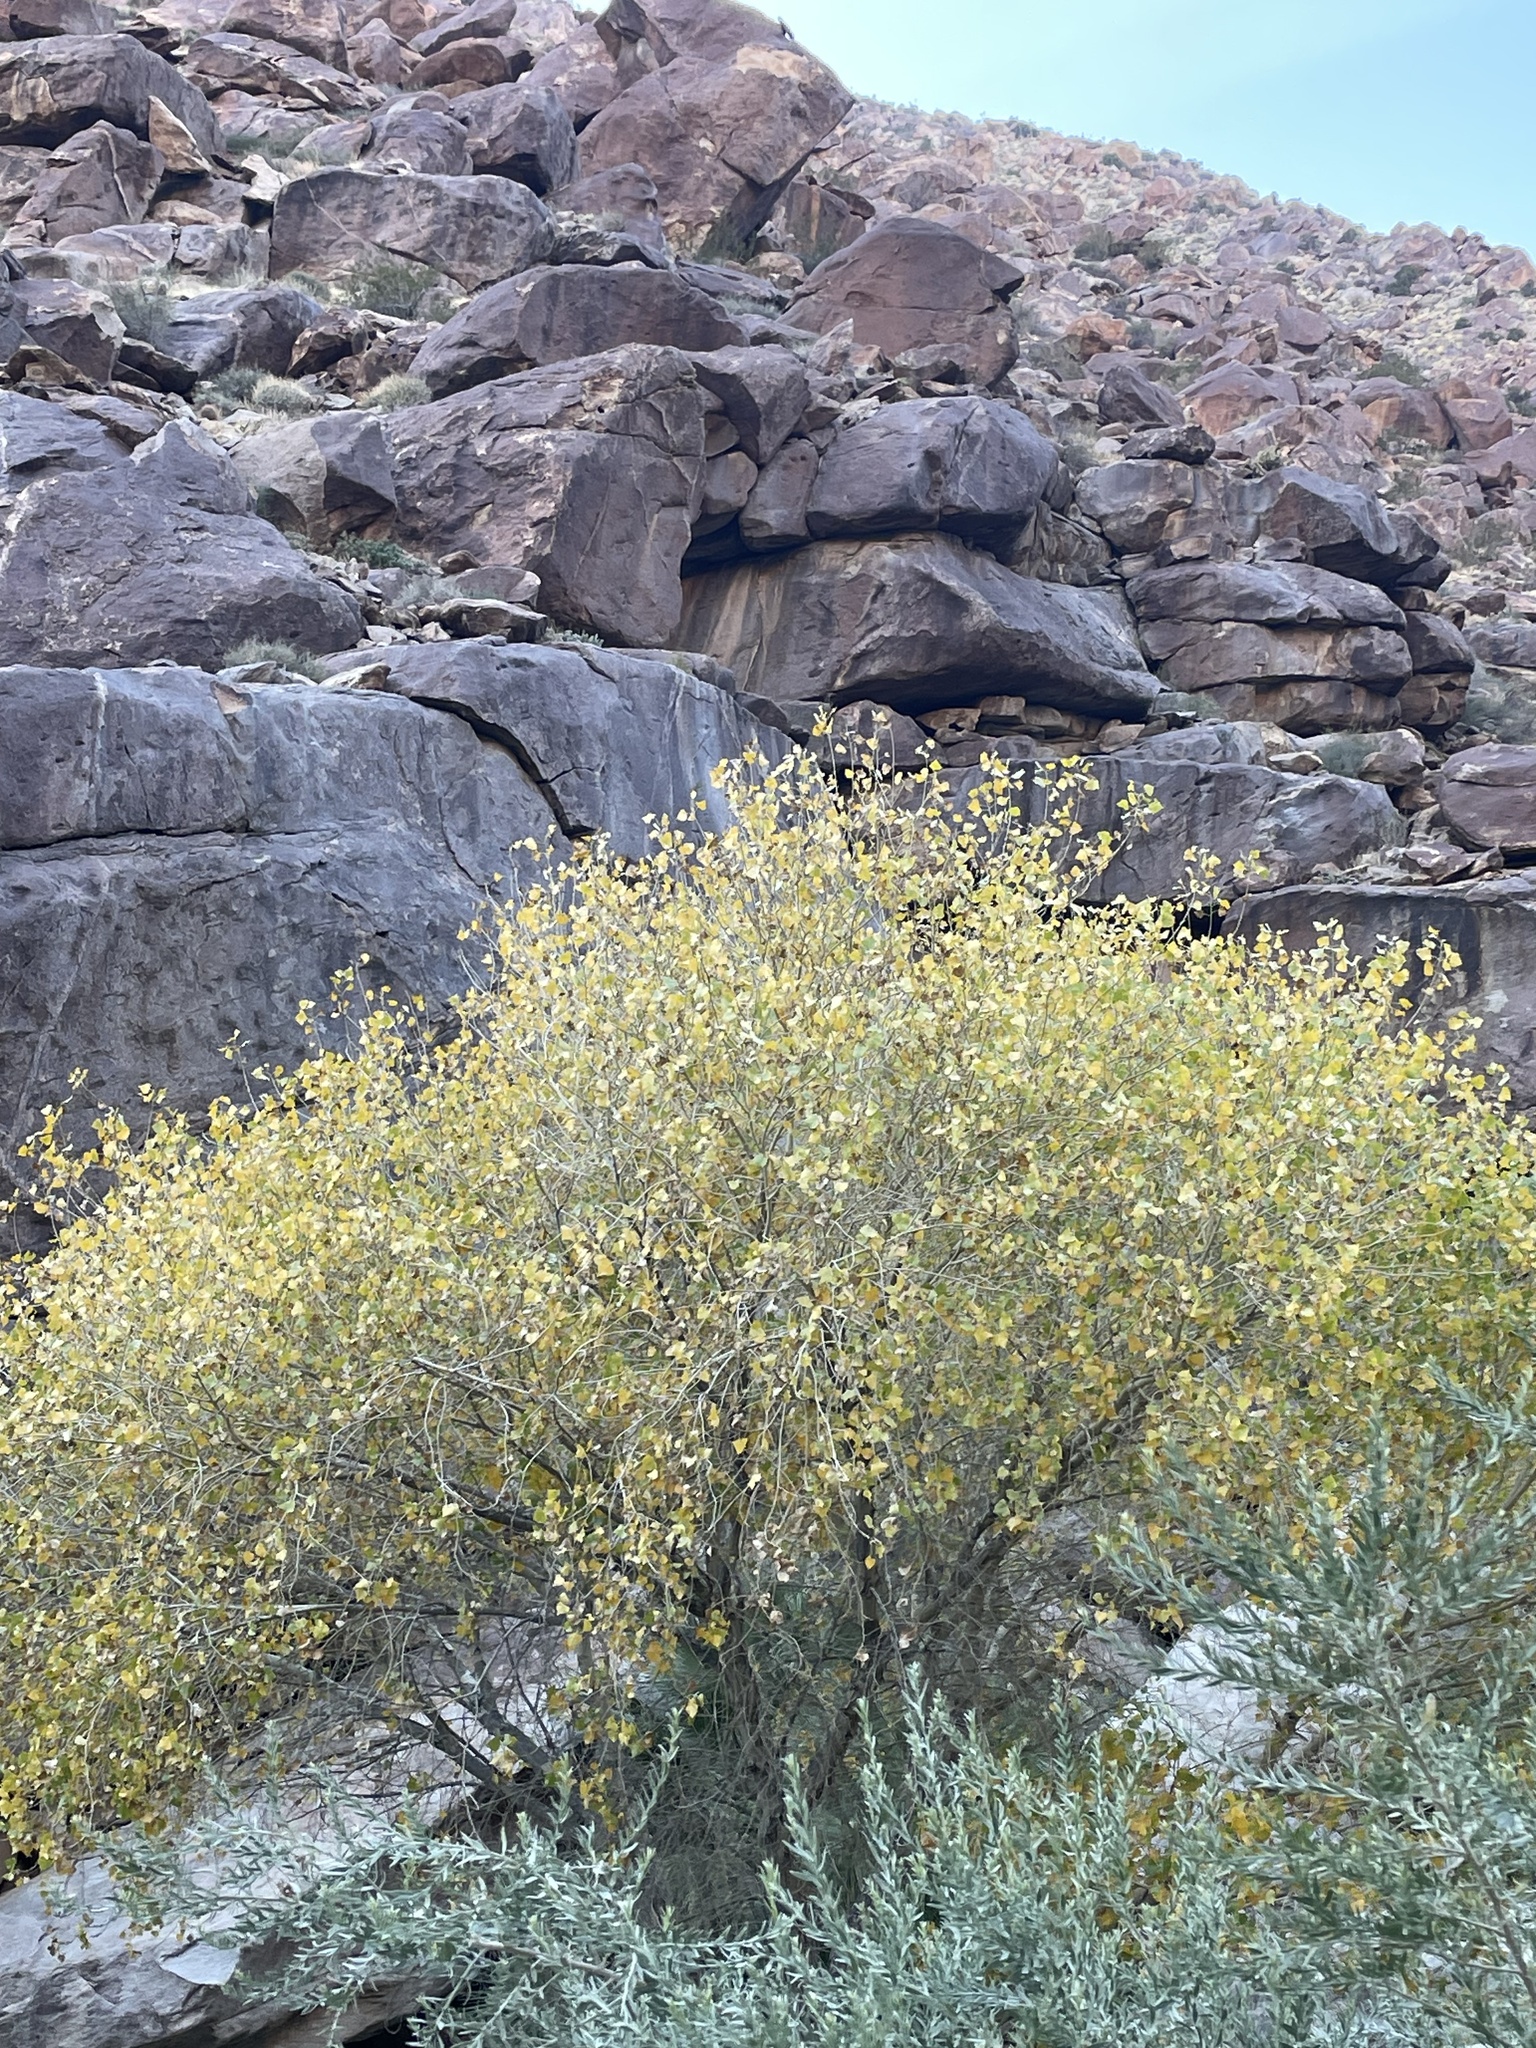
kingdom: Plantae
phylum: Tracheophyta
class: Magnoliopsida
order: Malpighiales
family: Salicaceae
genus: Populus
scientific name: Populus fremontii
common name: Fremont's cottonwood
